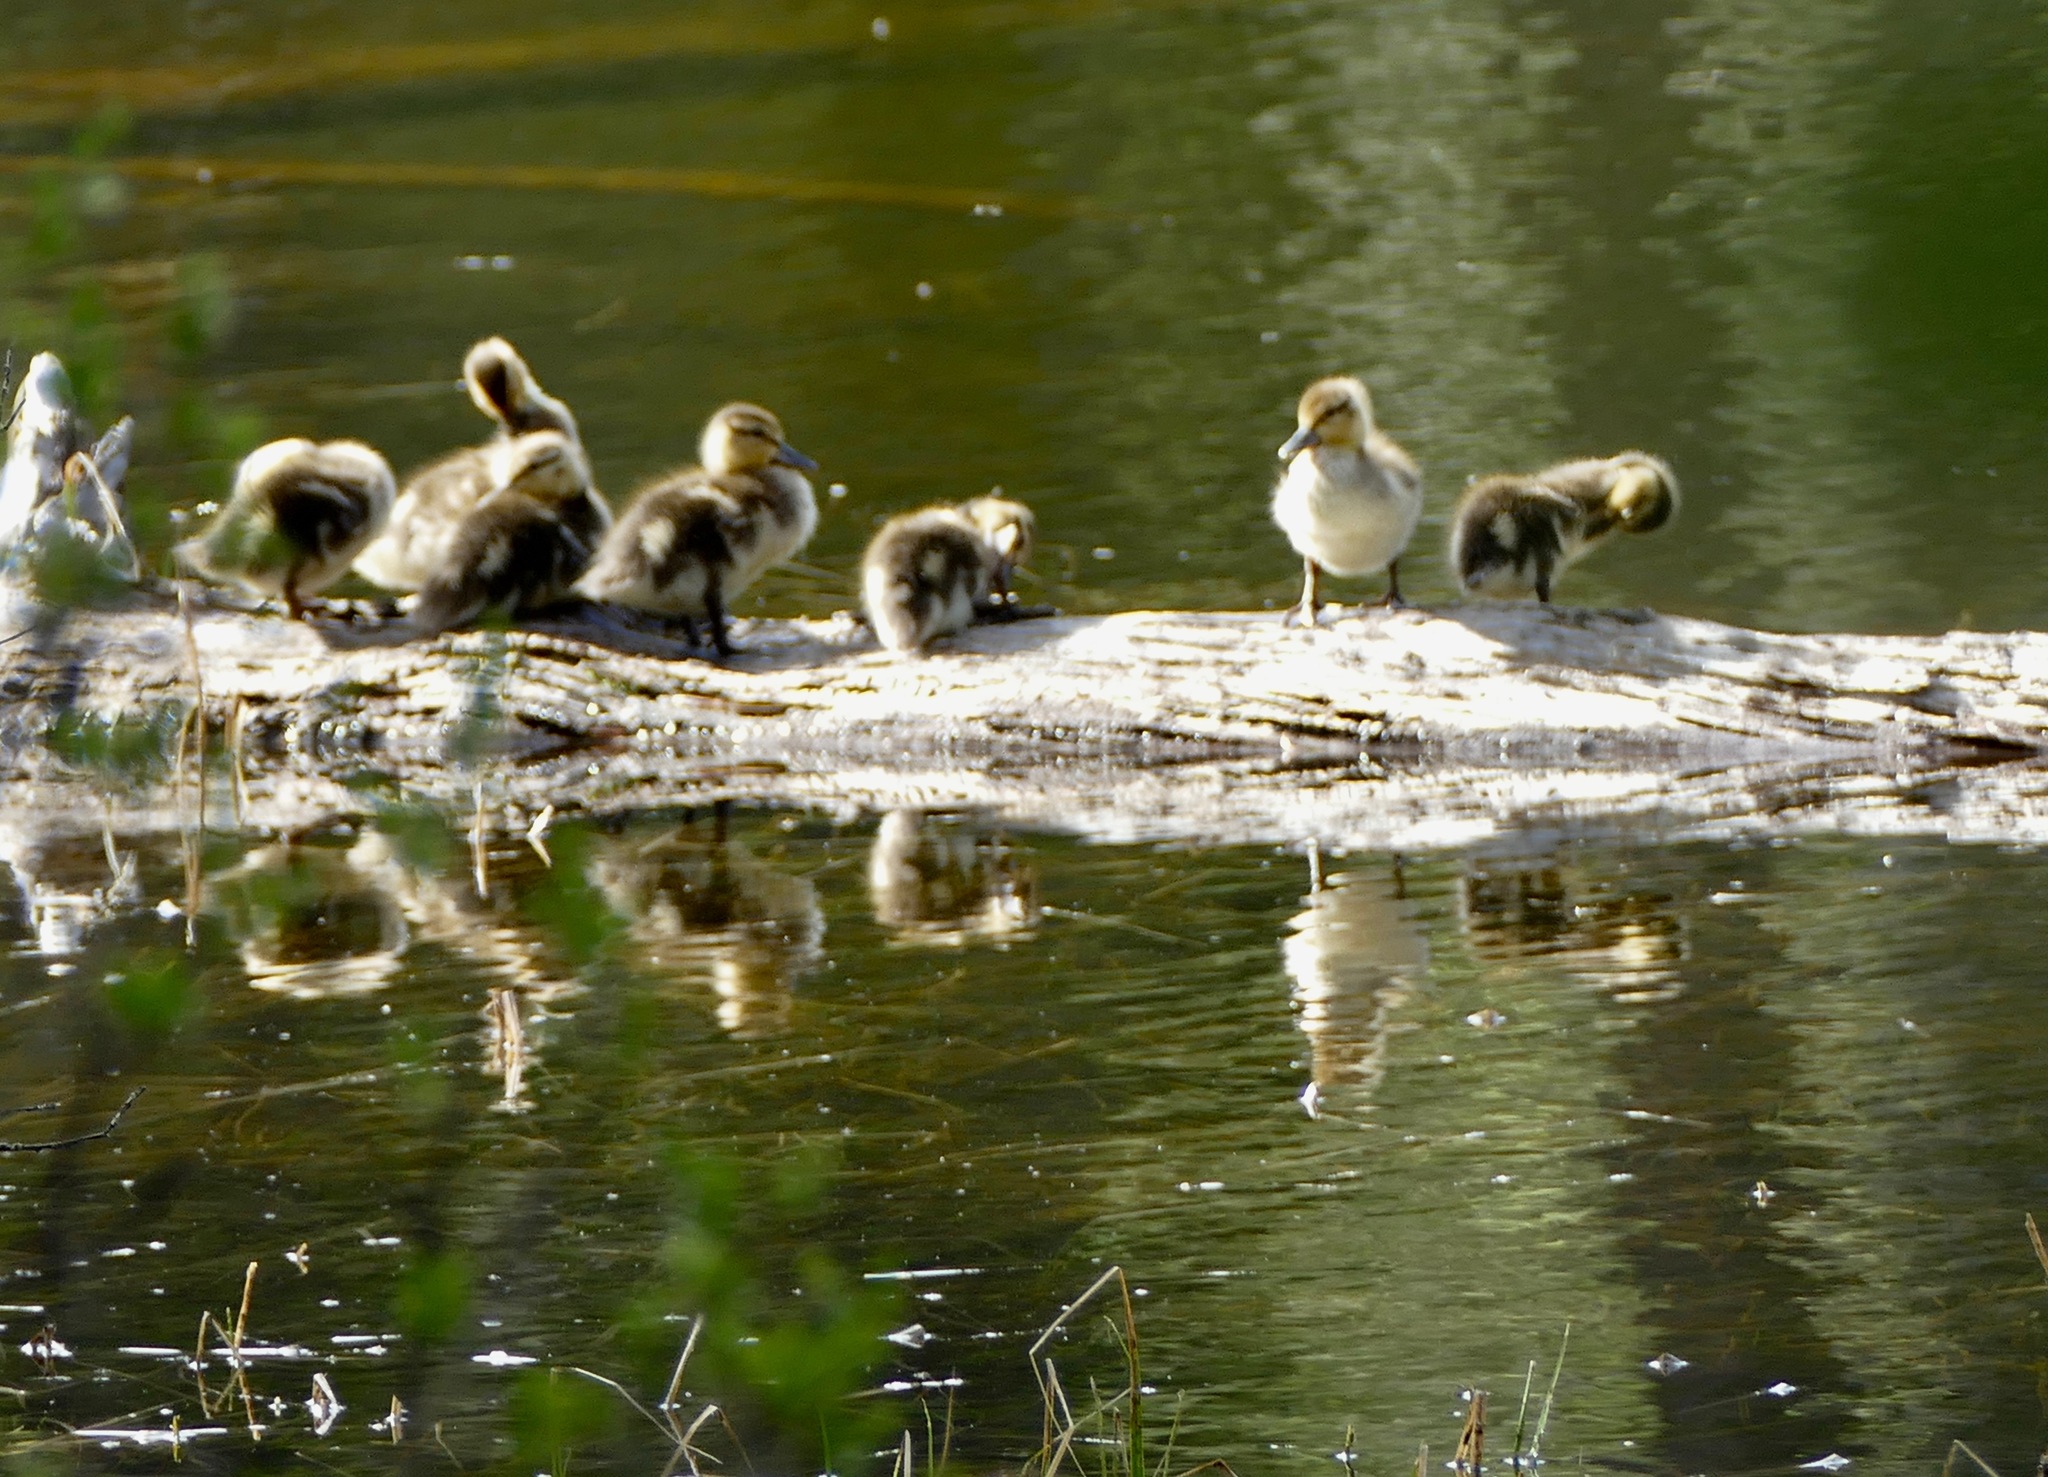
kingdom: Animalia
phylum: Chordata
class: Aves
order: Anseriformes
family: Anatidae
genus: Anas
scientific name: Anas platyrhynchos
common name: Mallard
